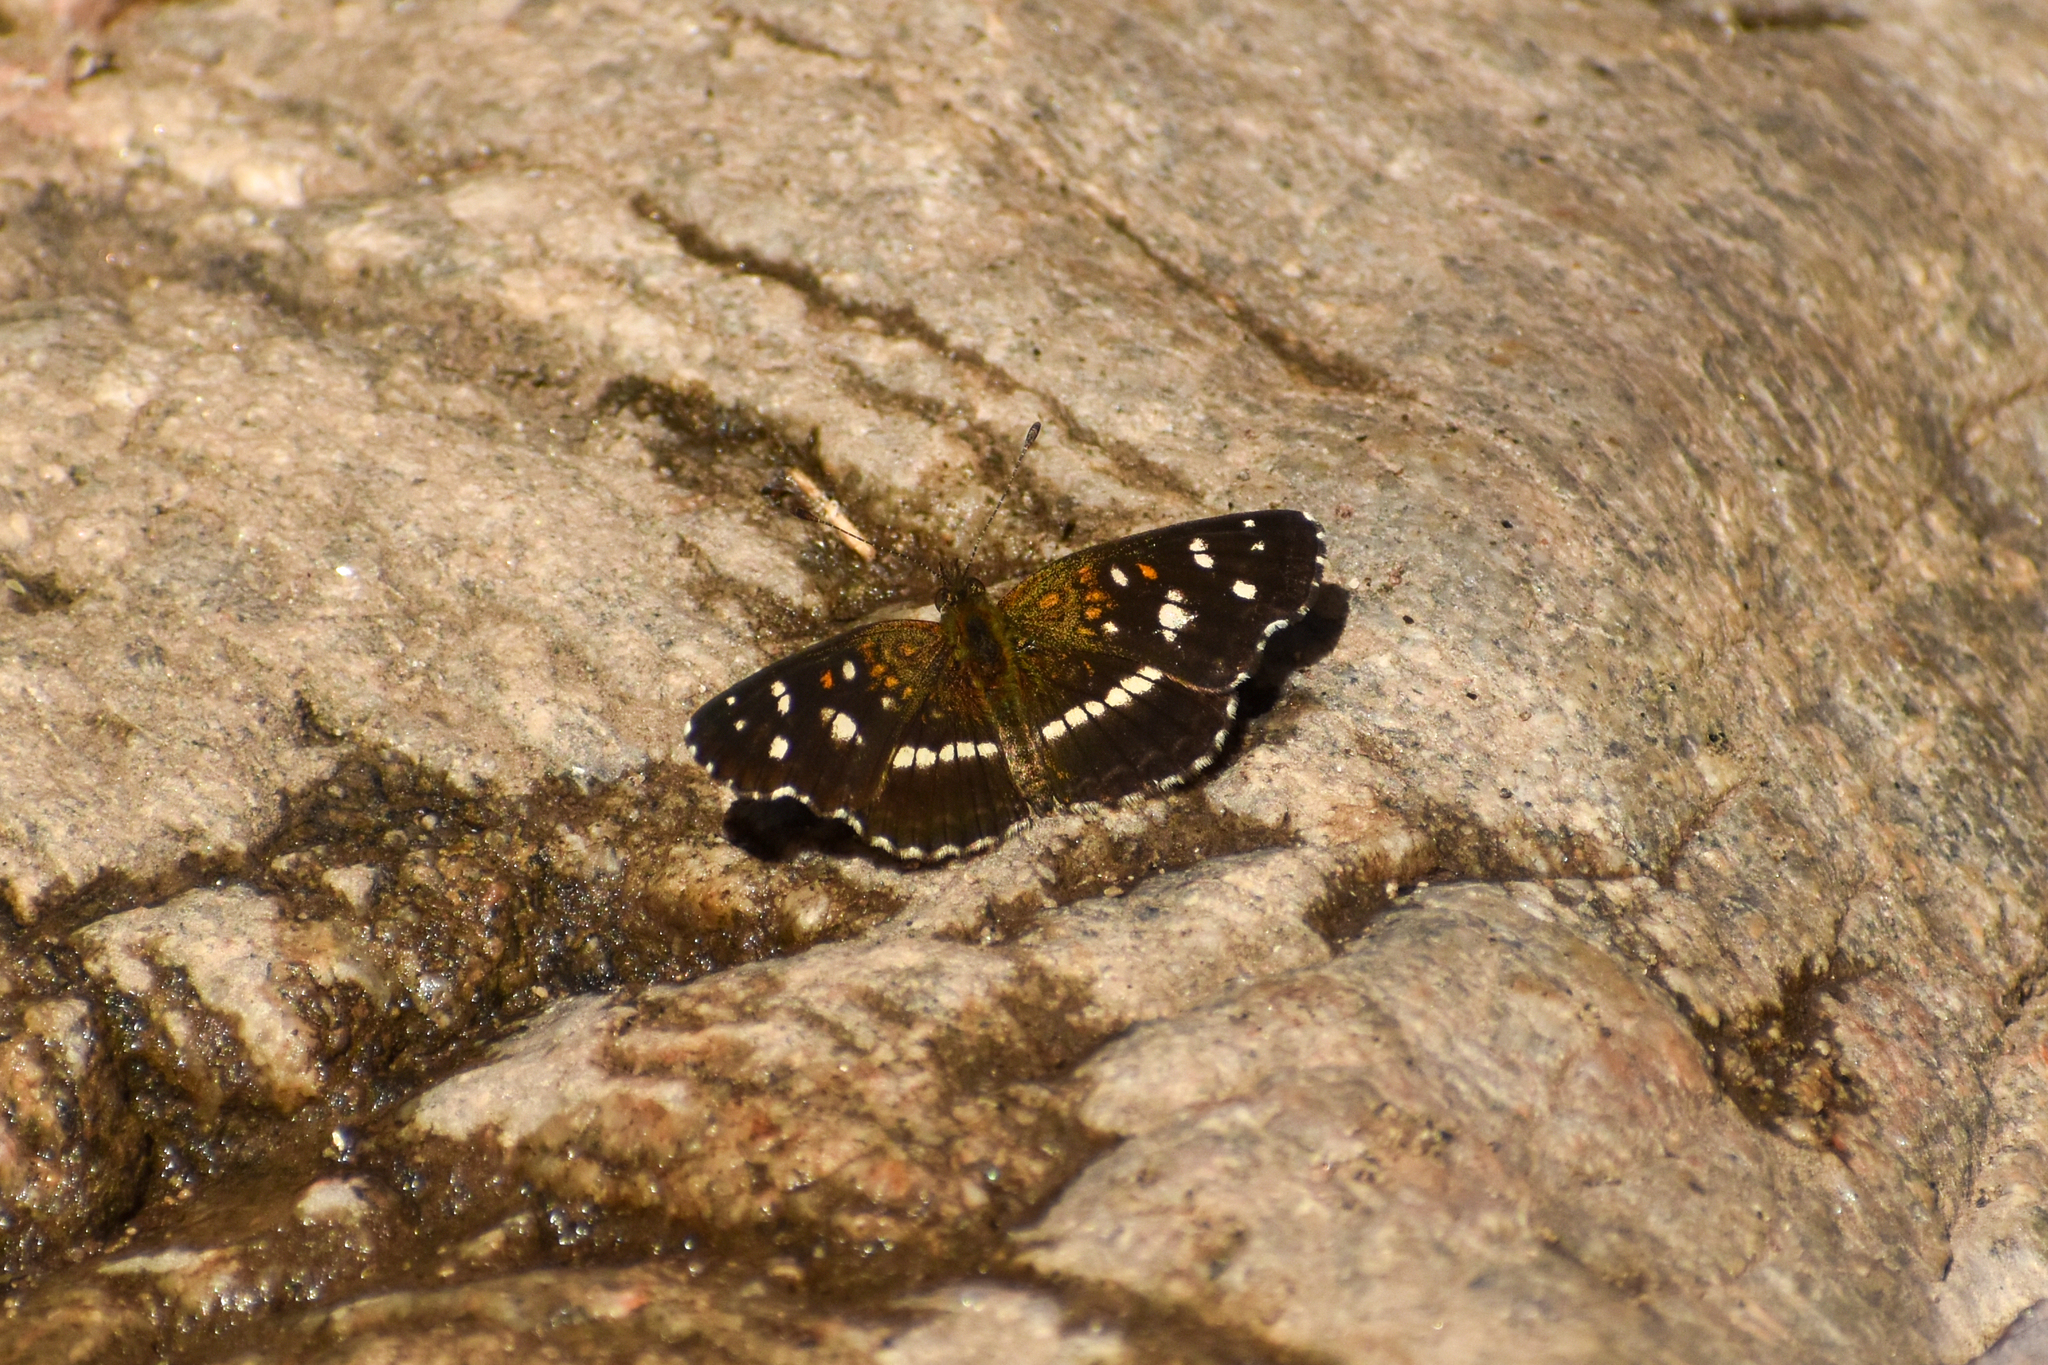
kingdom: Animalia
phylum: Arthropoda
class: Insecta
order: Lepidoptera
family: Nymphalidae
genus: Ortilia
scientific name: Ortilia ithra
